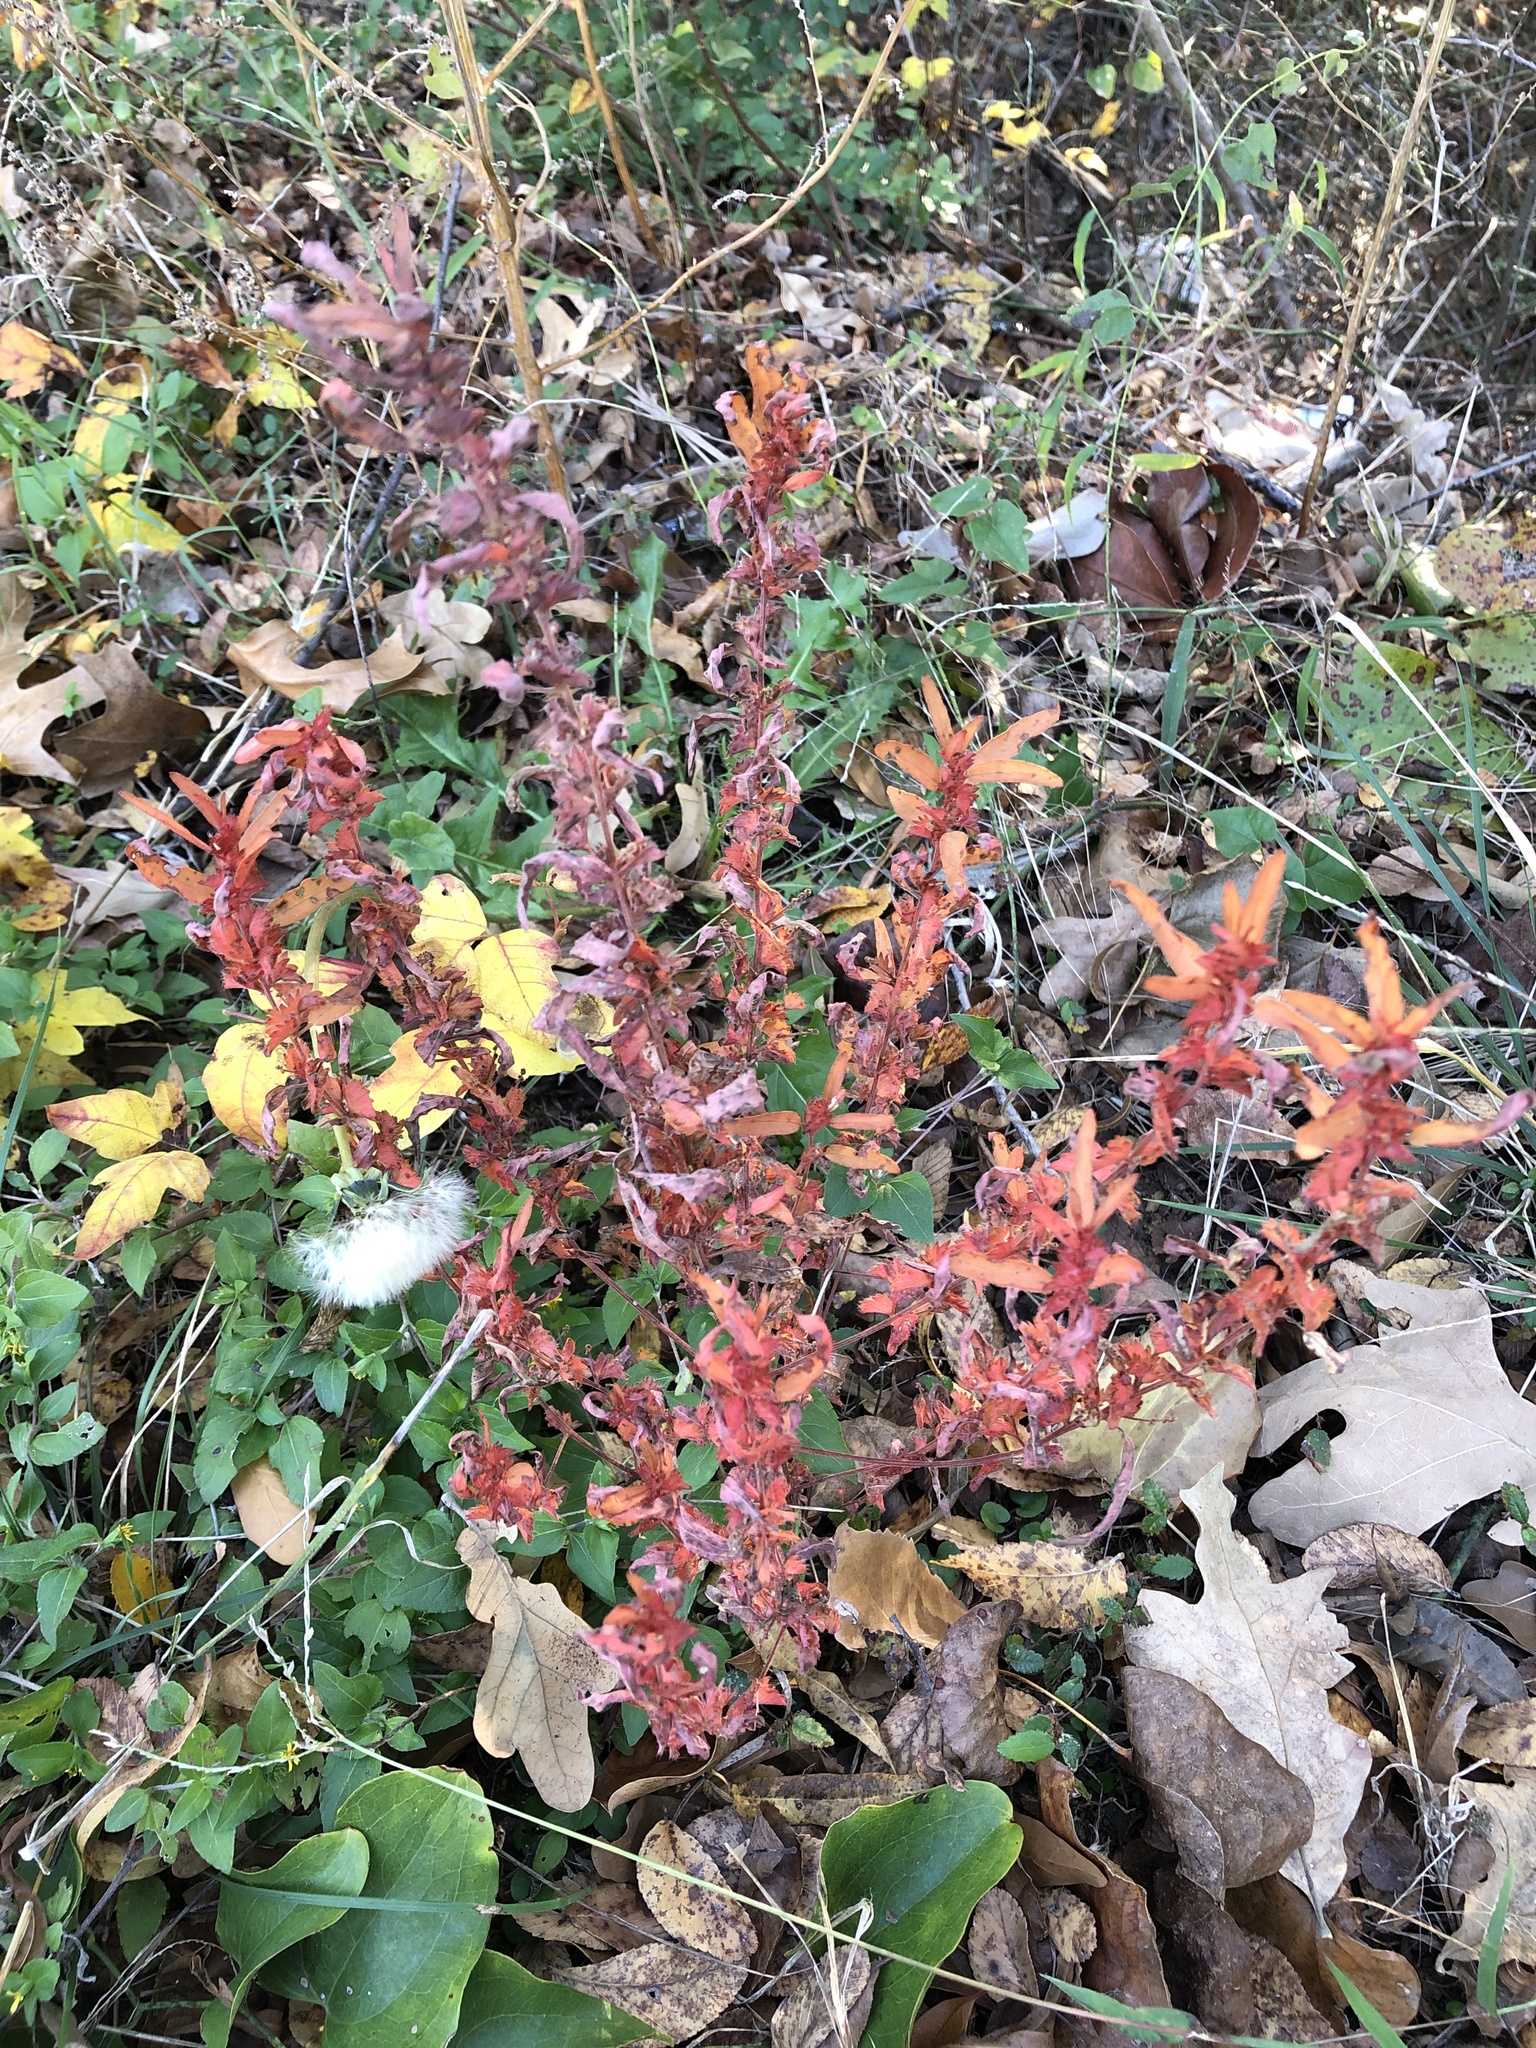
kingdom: Plantae
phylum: Tracheophyta
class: Magnoliopsida
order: Malpighiales
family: Euphorbiaceae
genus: Acalypha
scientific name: Acalypha gracilens
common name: Slender three-seeded mercury
